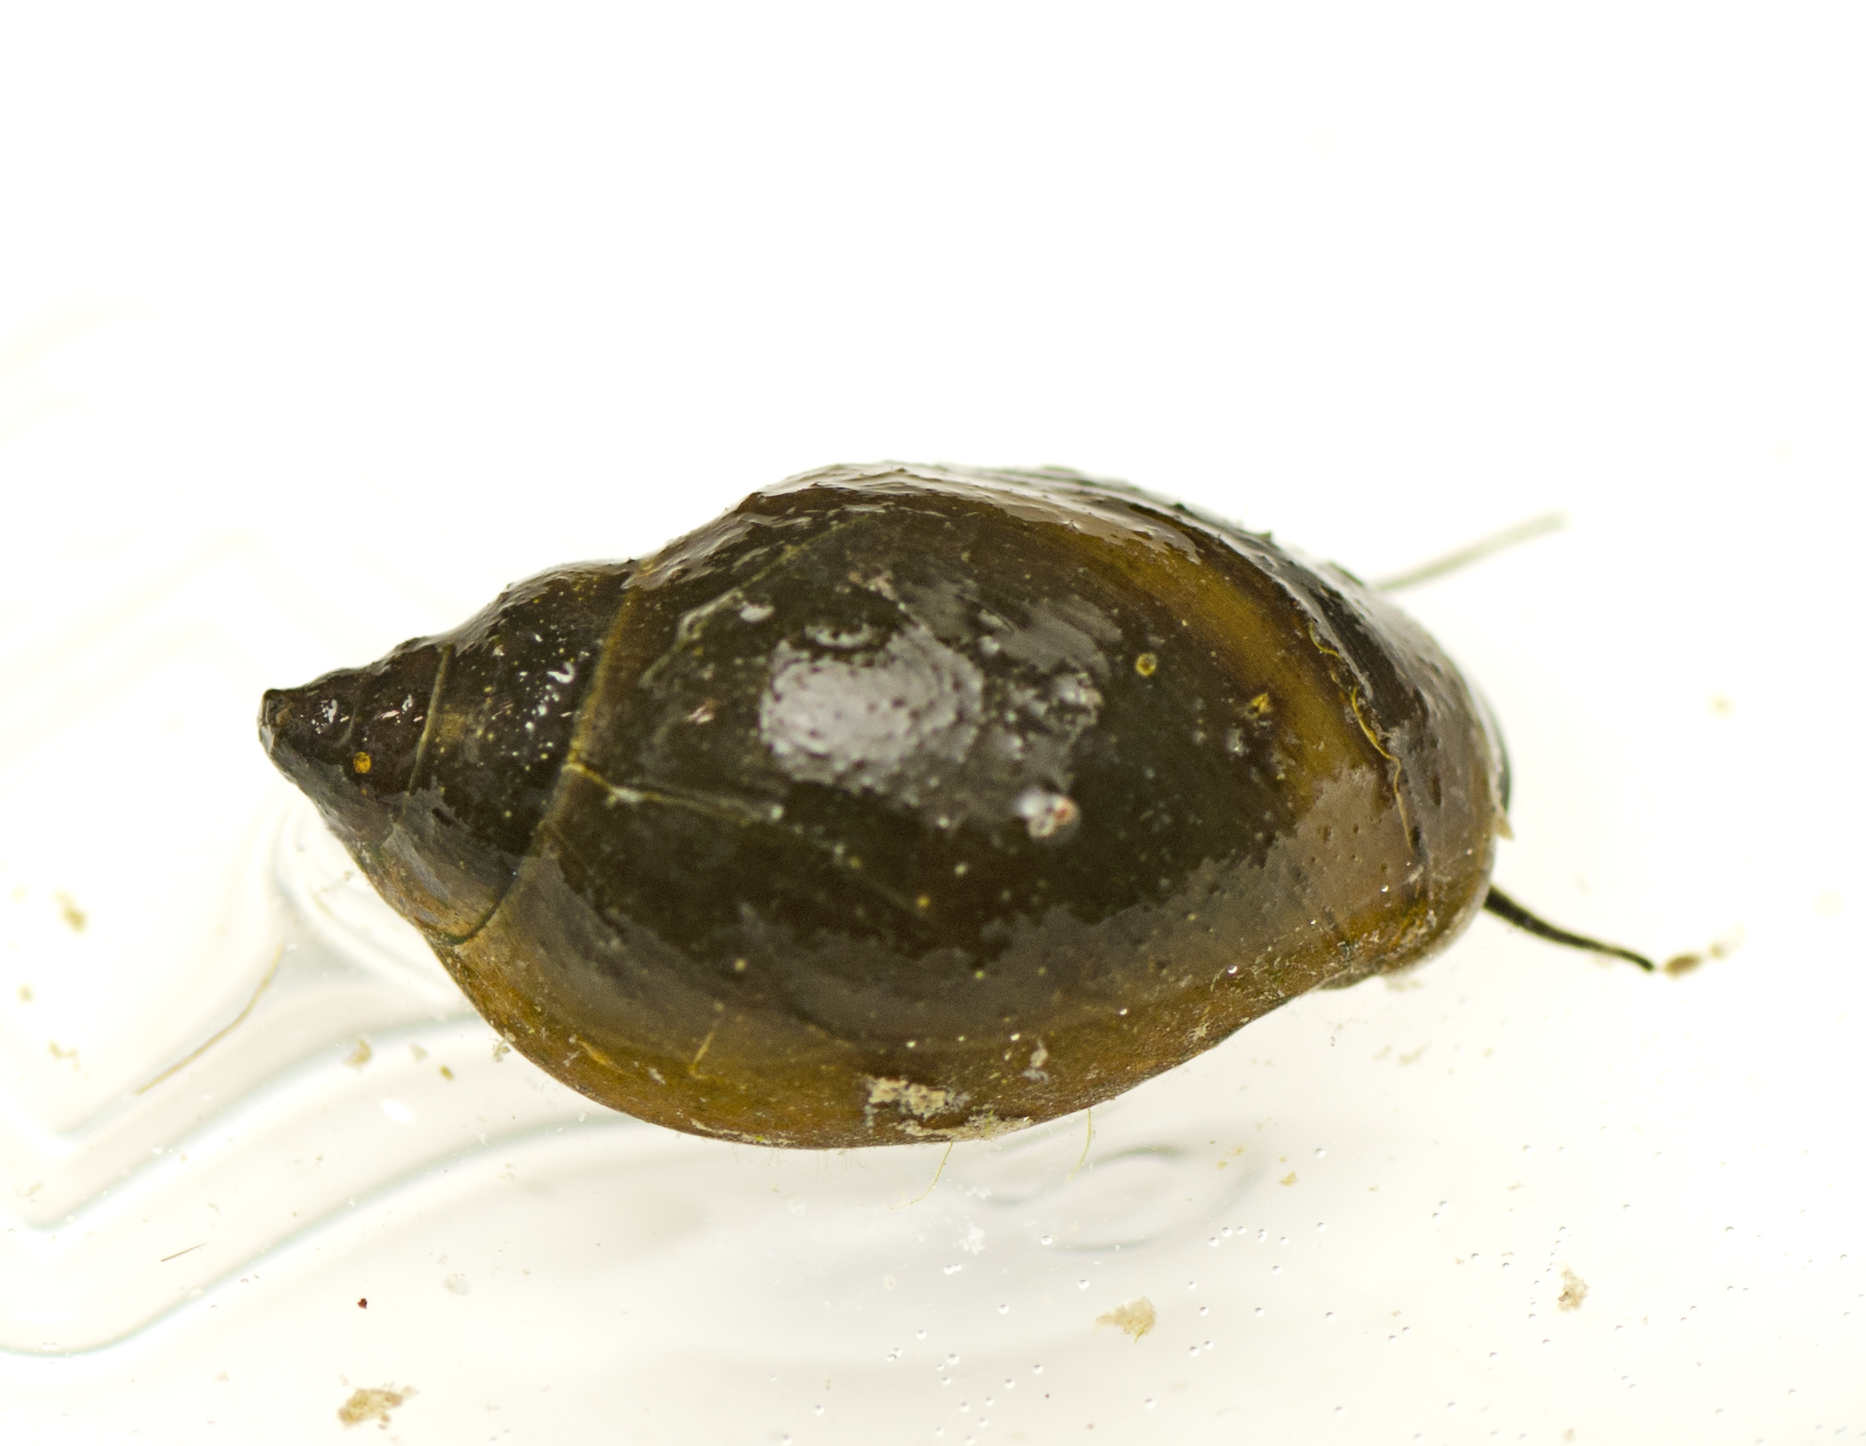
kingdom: Animalia
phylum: Mollusca
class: Gastropoda
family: Physidae
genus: Physella
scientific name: Physella acuta
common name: European physa
